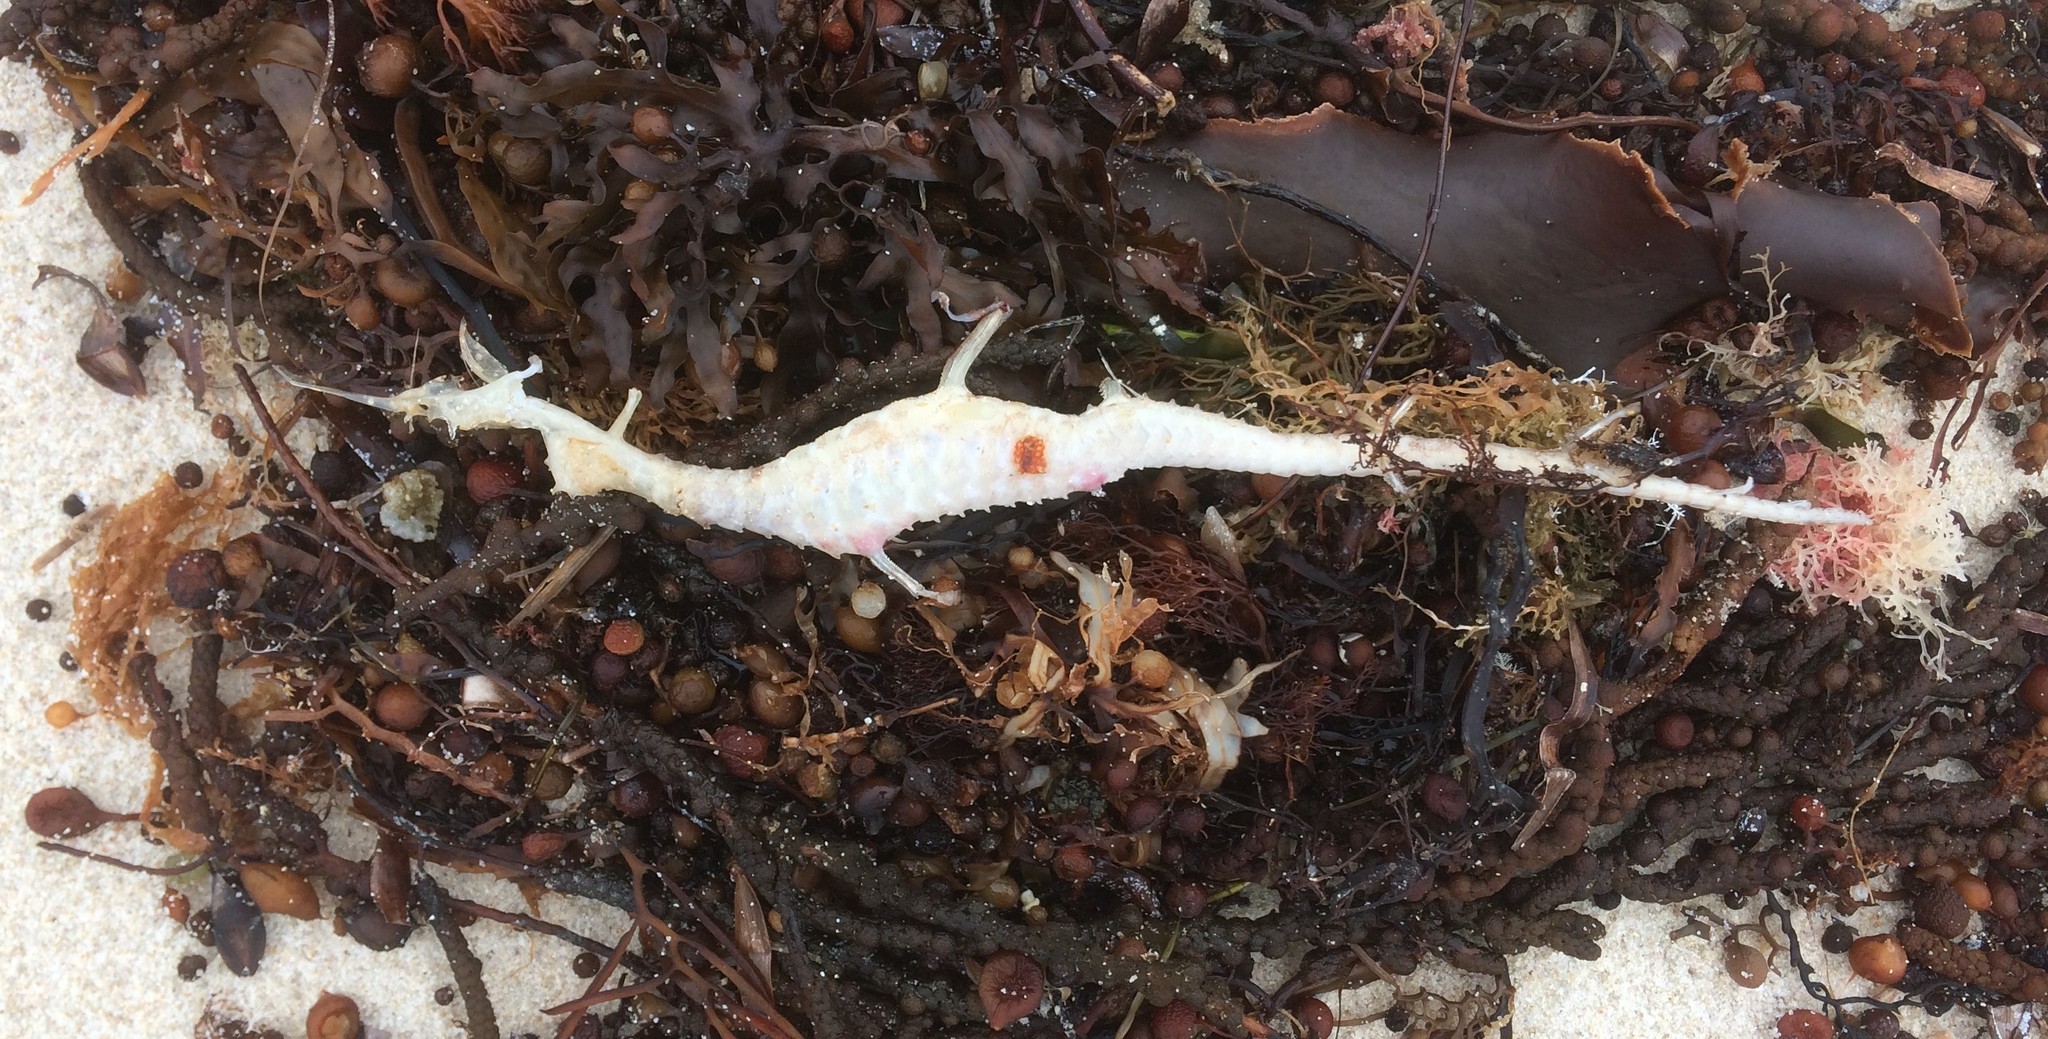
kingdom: Animalia
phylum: Chordata
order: Syngnathiformes
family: Syngnathidae
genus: Phyllopteryx
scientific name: Phyllopteryx taeniolatus
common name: Common seadragon
